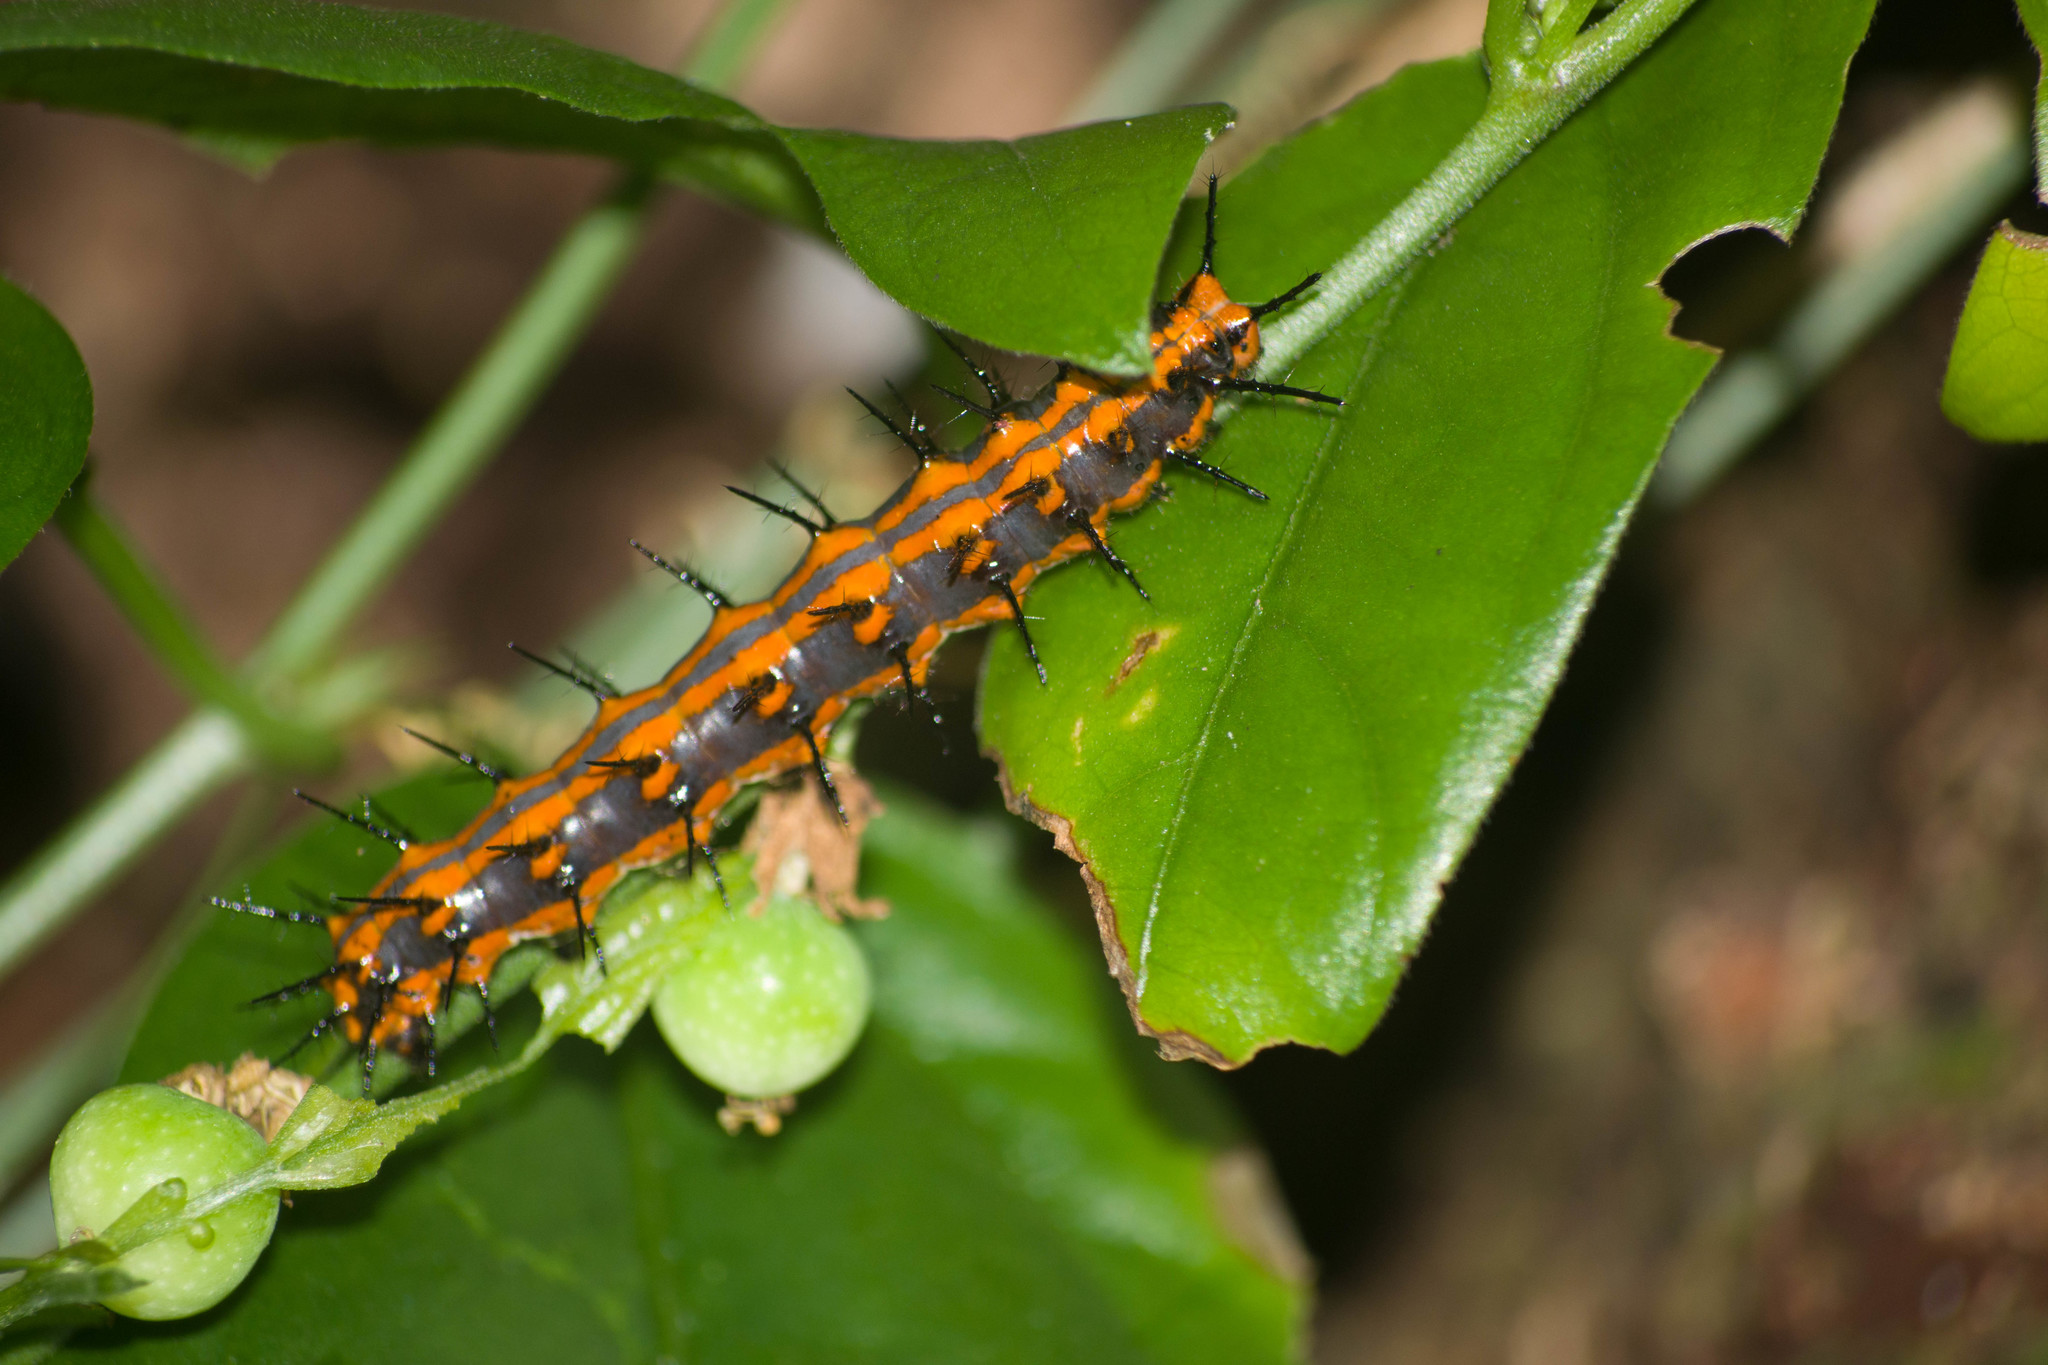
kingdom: Animalia
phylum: Arthropoda
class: Insecta
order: Lepidoptera
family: Nymphalidae
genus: Dione
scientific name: Dione vanillae
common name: Gulf fritillary
